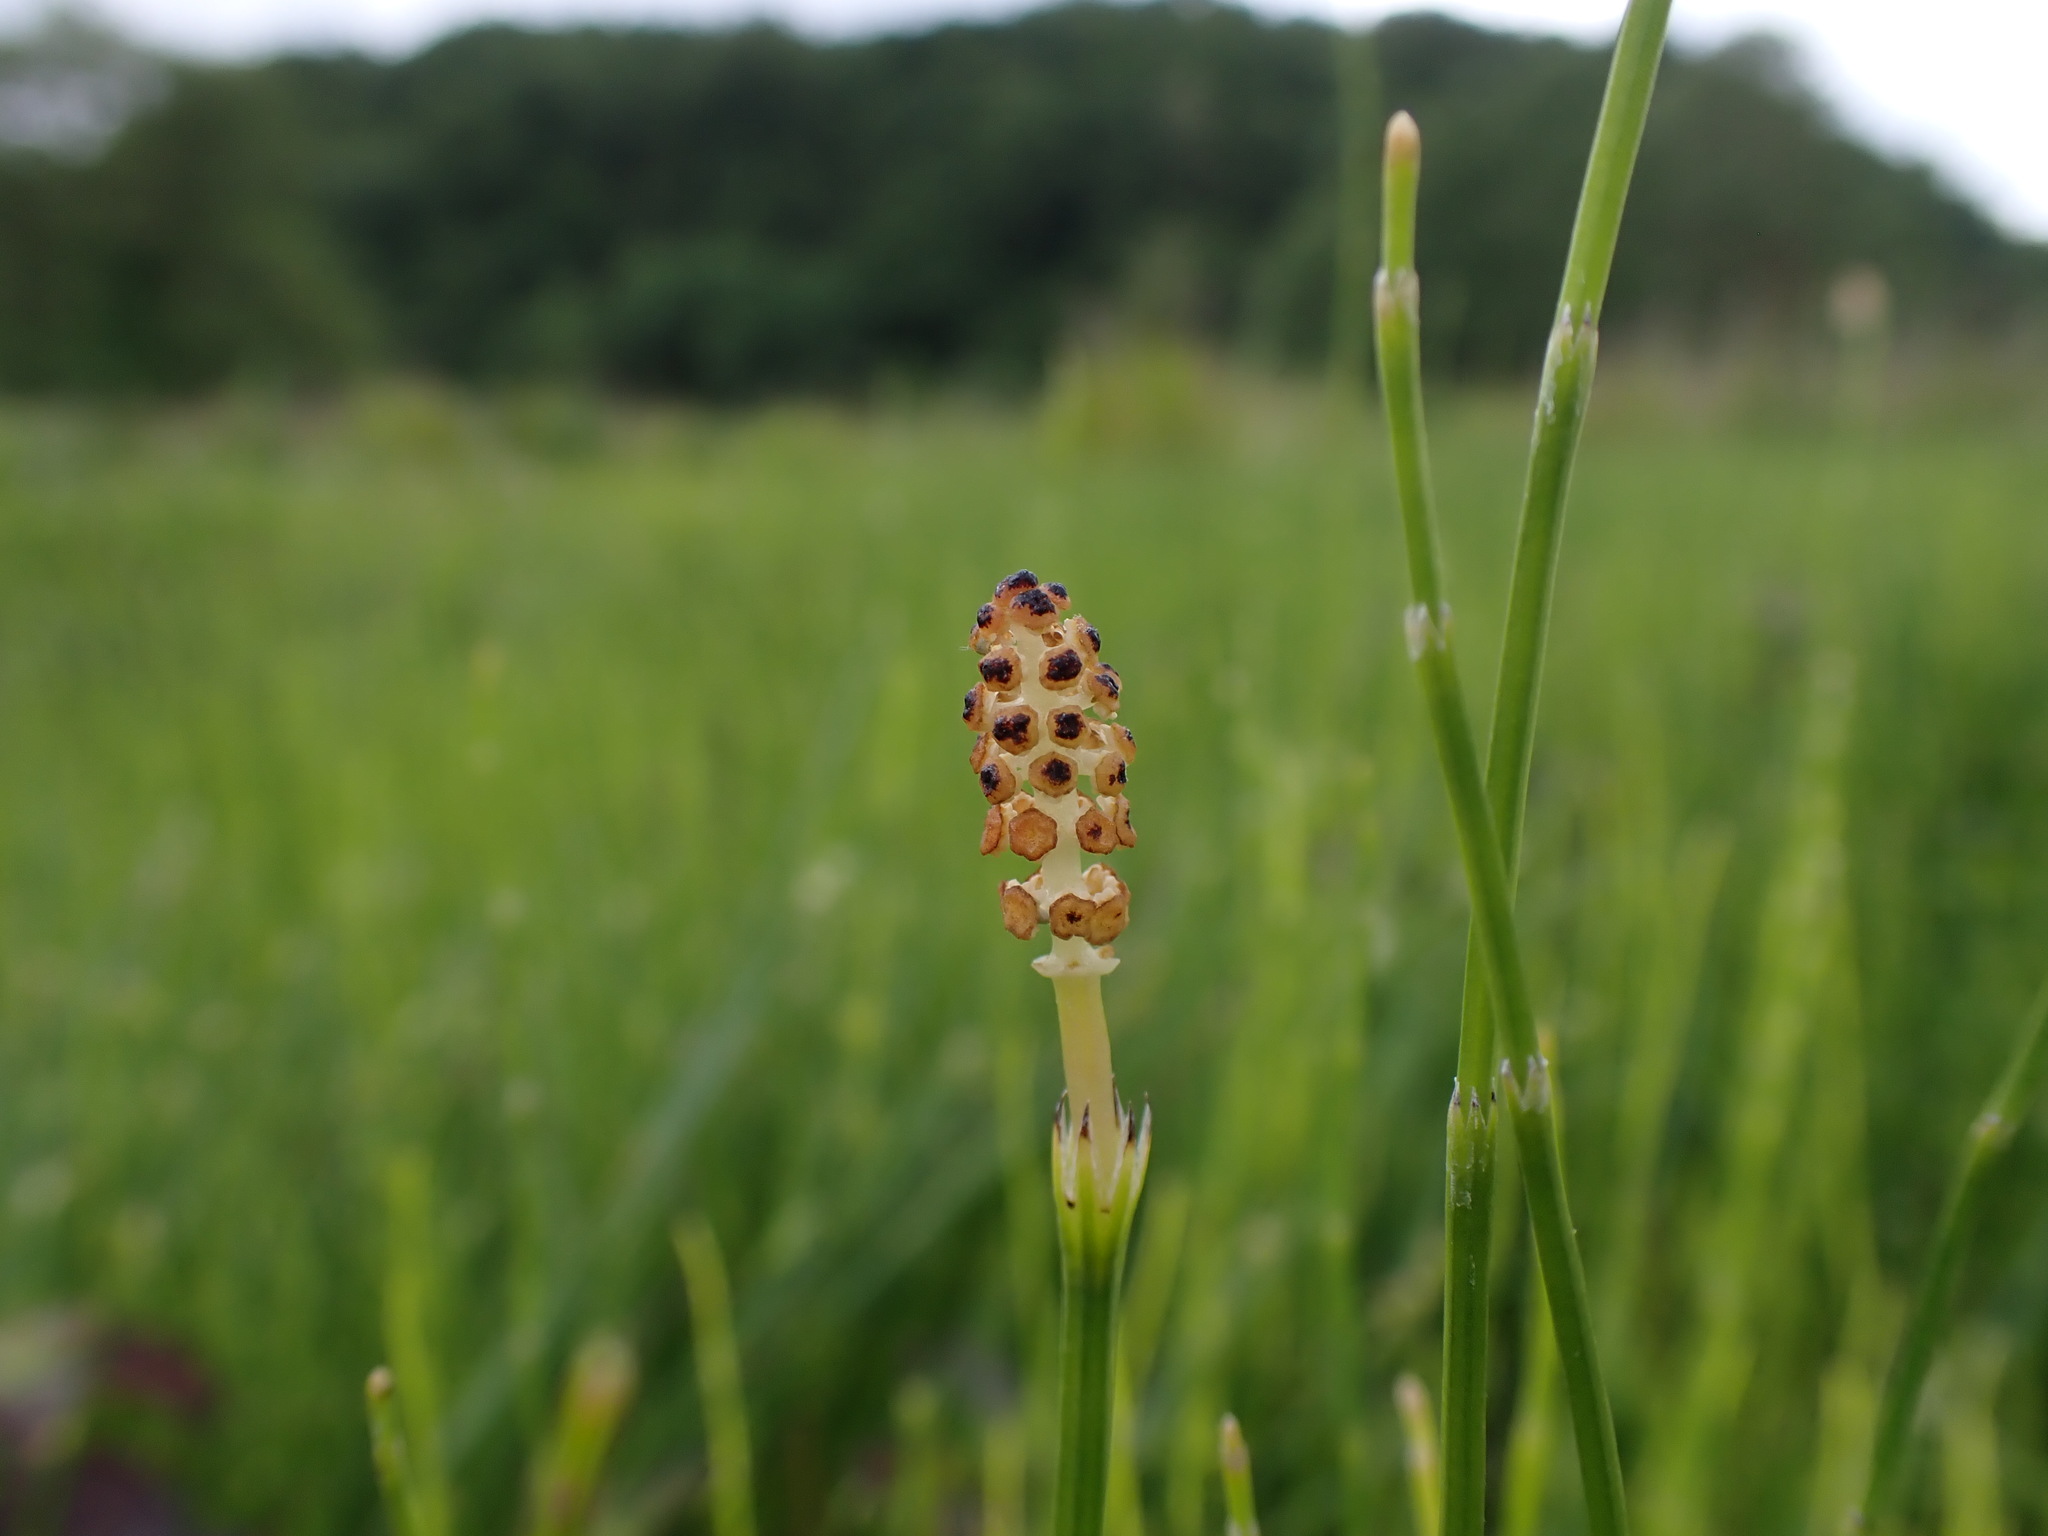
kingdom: Plantae
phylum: Tracheophyta
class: Polypodiopsida
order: Equisetales
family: Equisetaceae
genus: Equisetum
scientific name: Equisetum palustre
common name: Marsh horsetail
